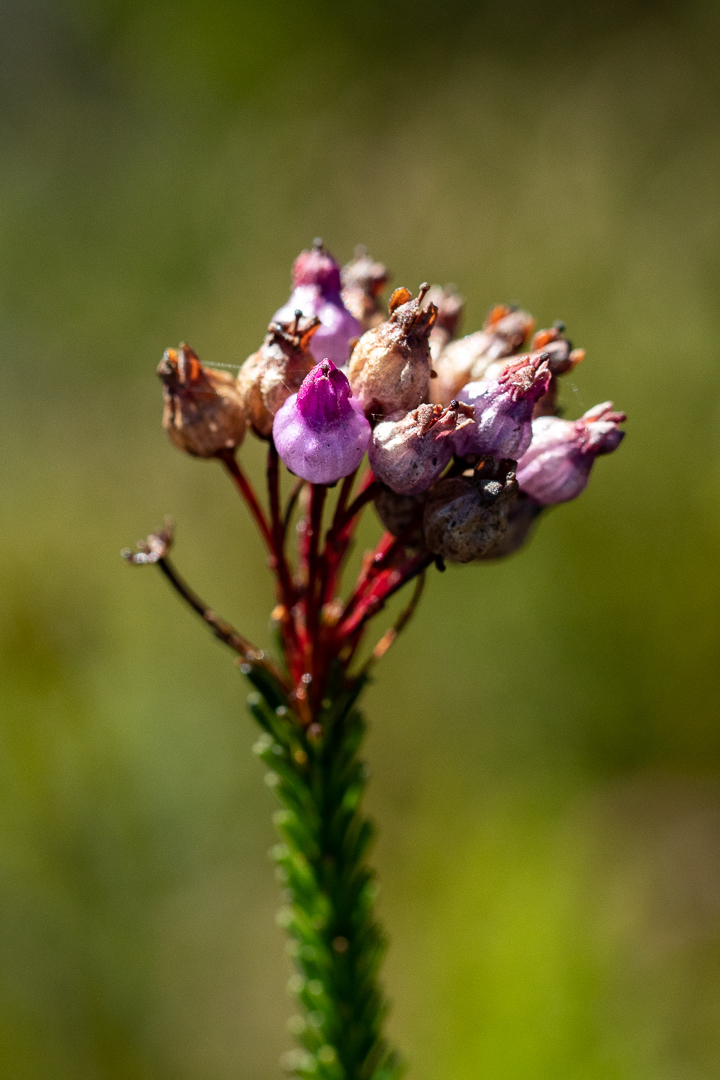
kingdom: Plantae
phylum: Tracheophyta
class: Magnoliopsida
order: Ericales
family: Ericaceae
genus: Erica
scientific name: Erica obliqua
